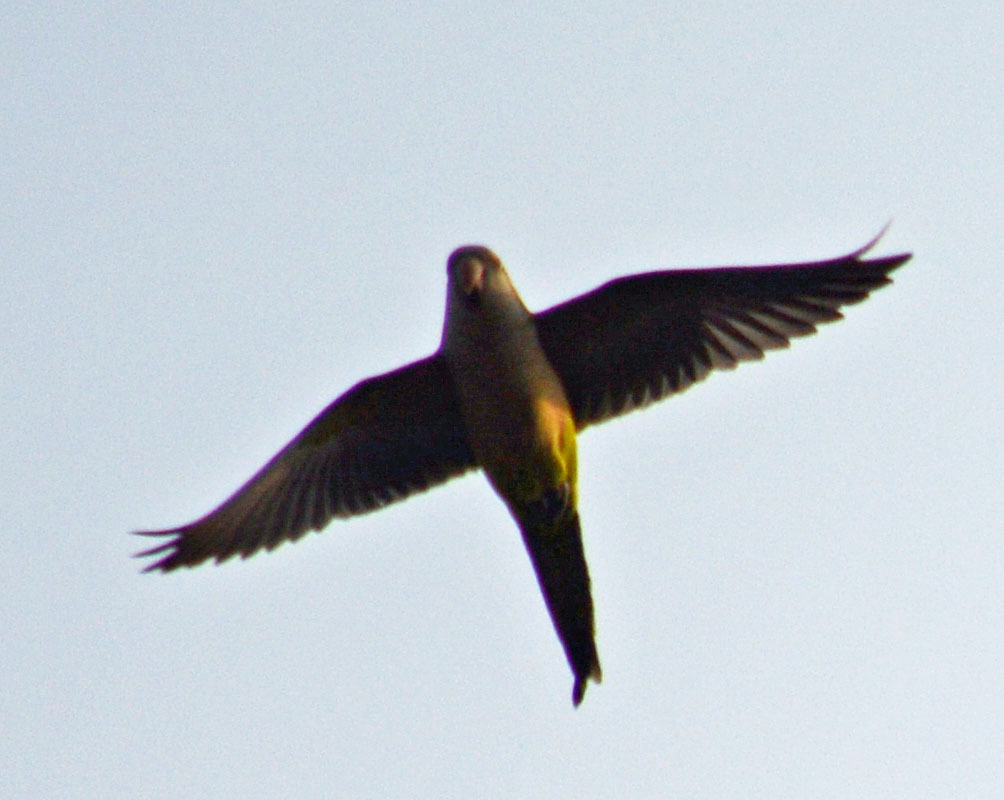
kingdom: Animalia
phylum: Chordata
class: Aves
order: Psittaciformes
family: Psittacidae
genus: Myiopsitta
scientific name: Myiopsitta monachus
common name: Monk parakeet
